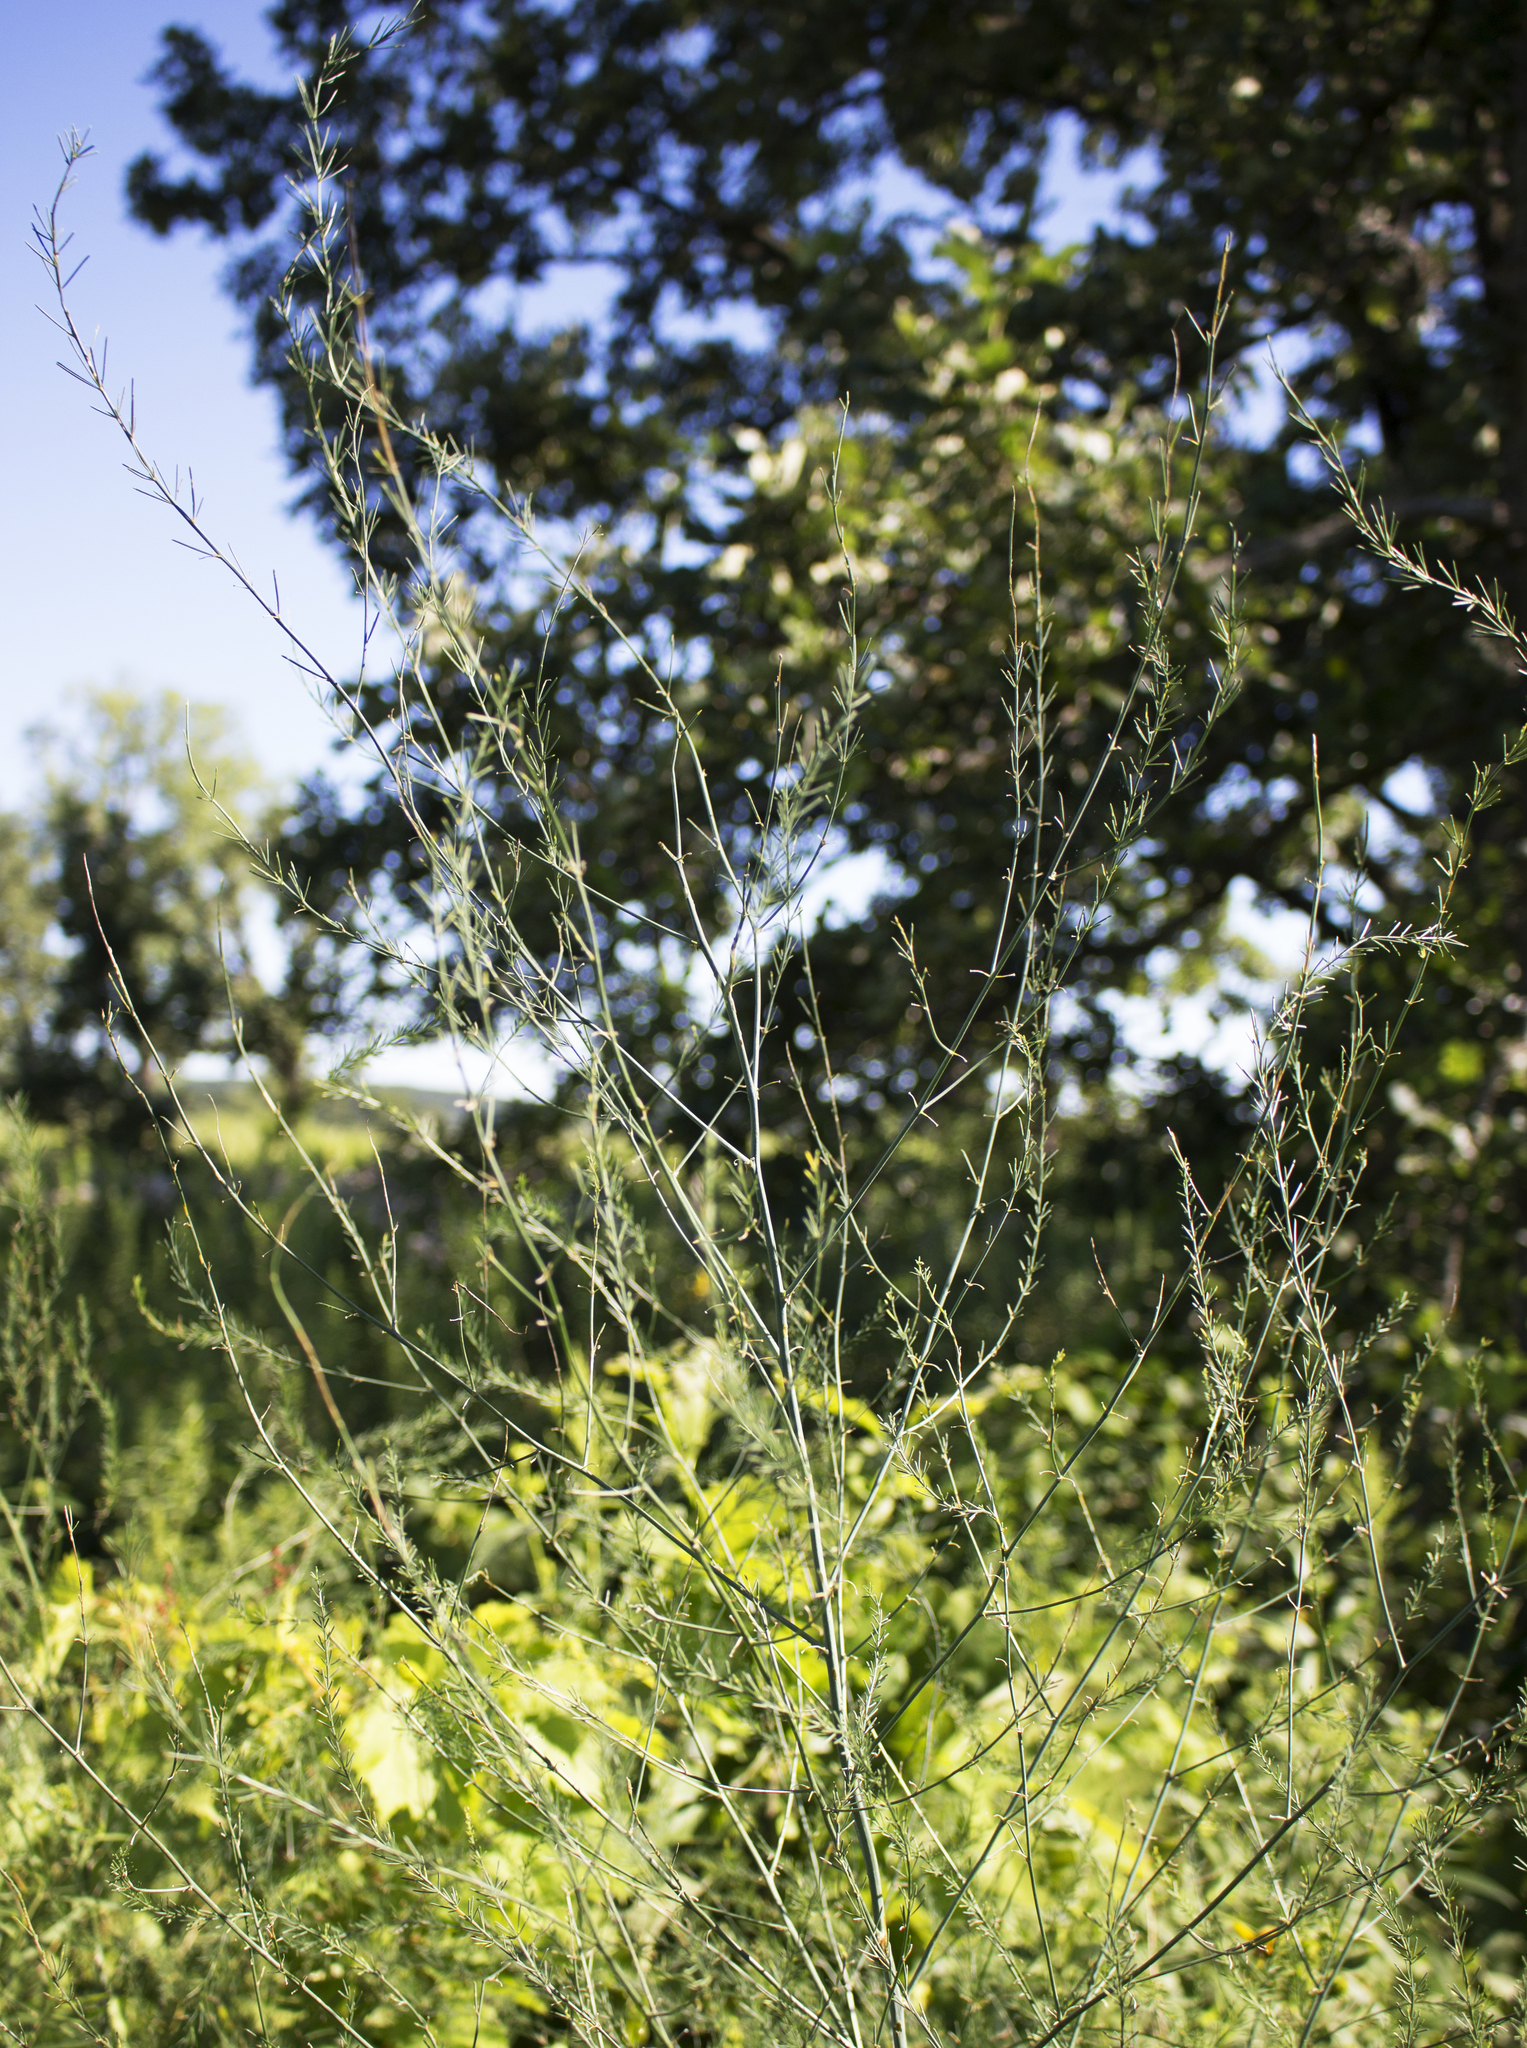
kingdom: Plantae
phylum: Tracheophyta
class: Liliopsida
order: Asparagales
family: Asparagaceae
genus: Asparagus
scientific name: Asparagus officinalis
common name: Garden asparagus
